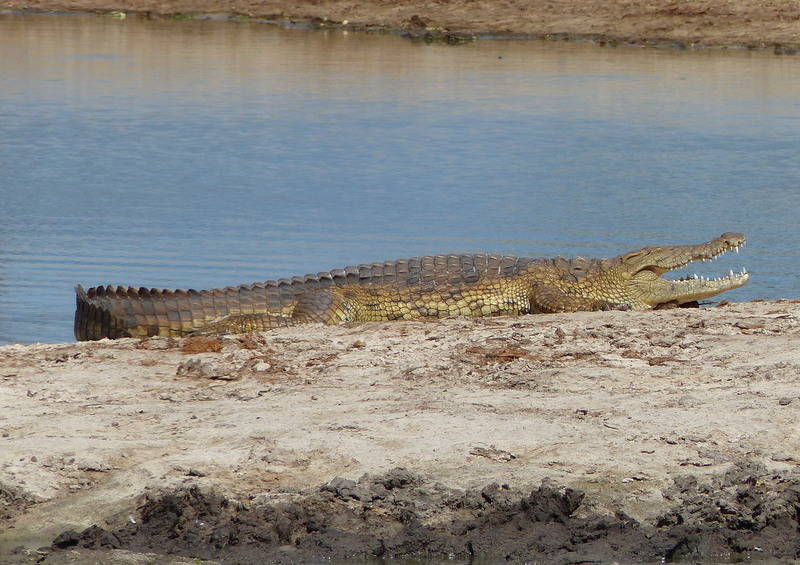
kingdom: Animalia
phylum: Chordata
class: Crocodylia
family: Crocodylidae
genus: Crocodylus
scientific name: Crocodylus niloticus
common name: Nile crocodile
